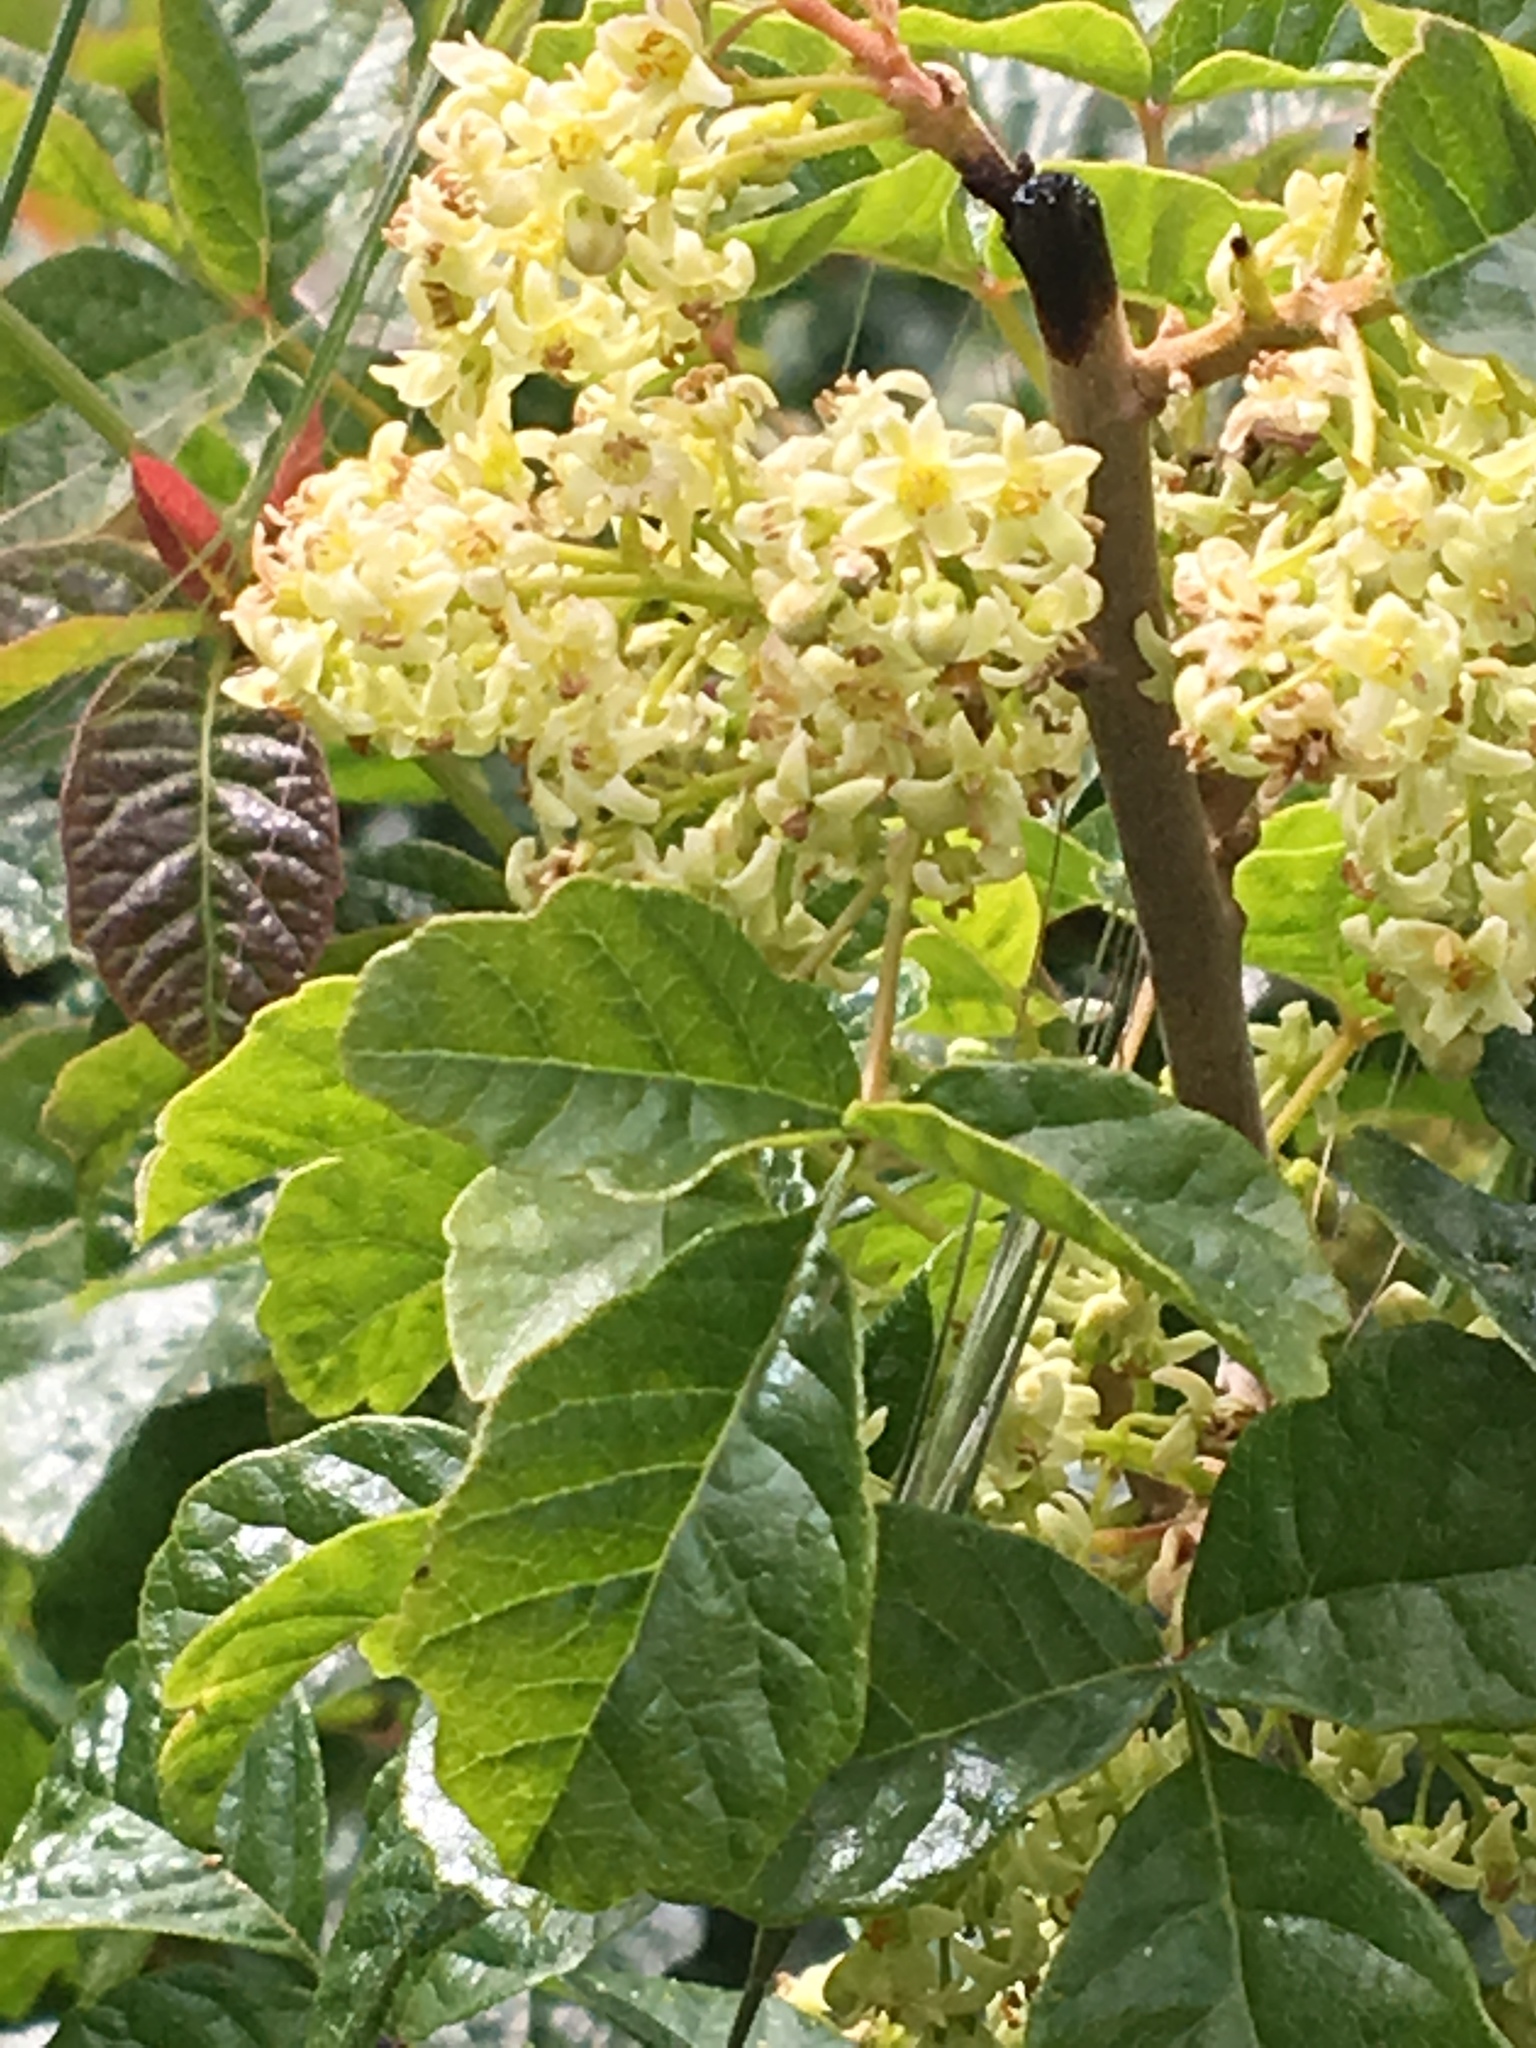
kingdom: Plantae
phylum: Tracheophyta
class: Magnoliopsida
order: Sapindales
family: Anacardiaceae
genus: Toxicodendron
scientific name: Toxicodendron diversilobum
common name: Pacific poison-oak
